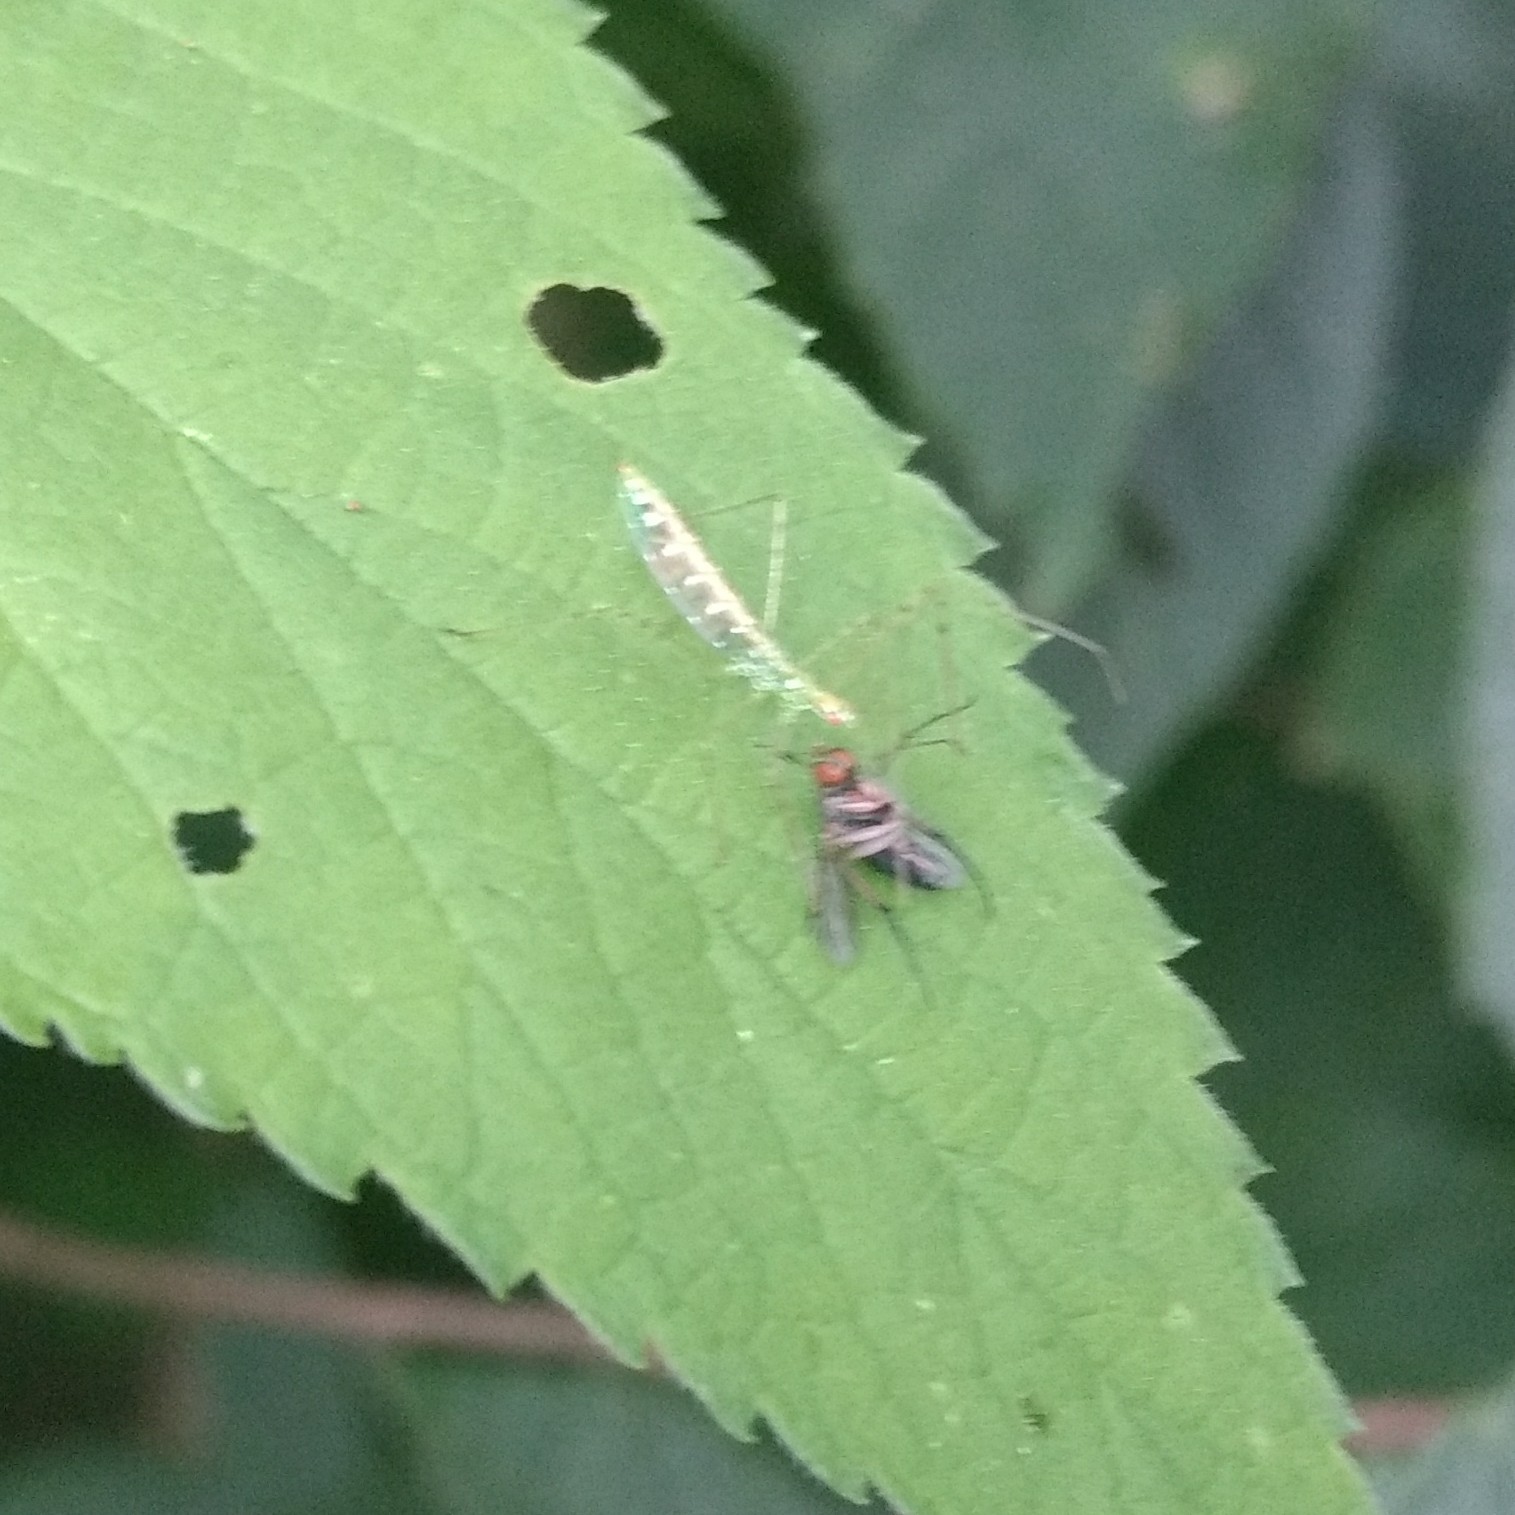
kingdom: Animalia
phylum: Arthropoda
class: Insecta
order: Hemiptera
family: Reduviidae
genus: Zelus
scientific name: Zelus luridus
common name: Pale green assassin bug
